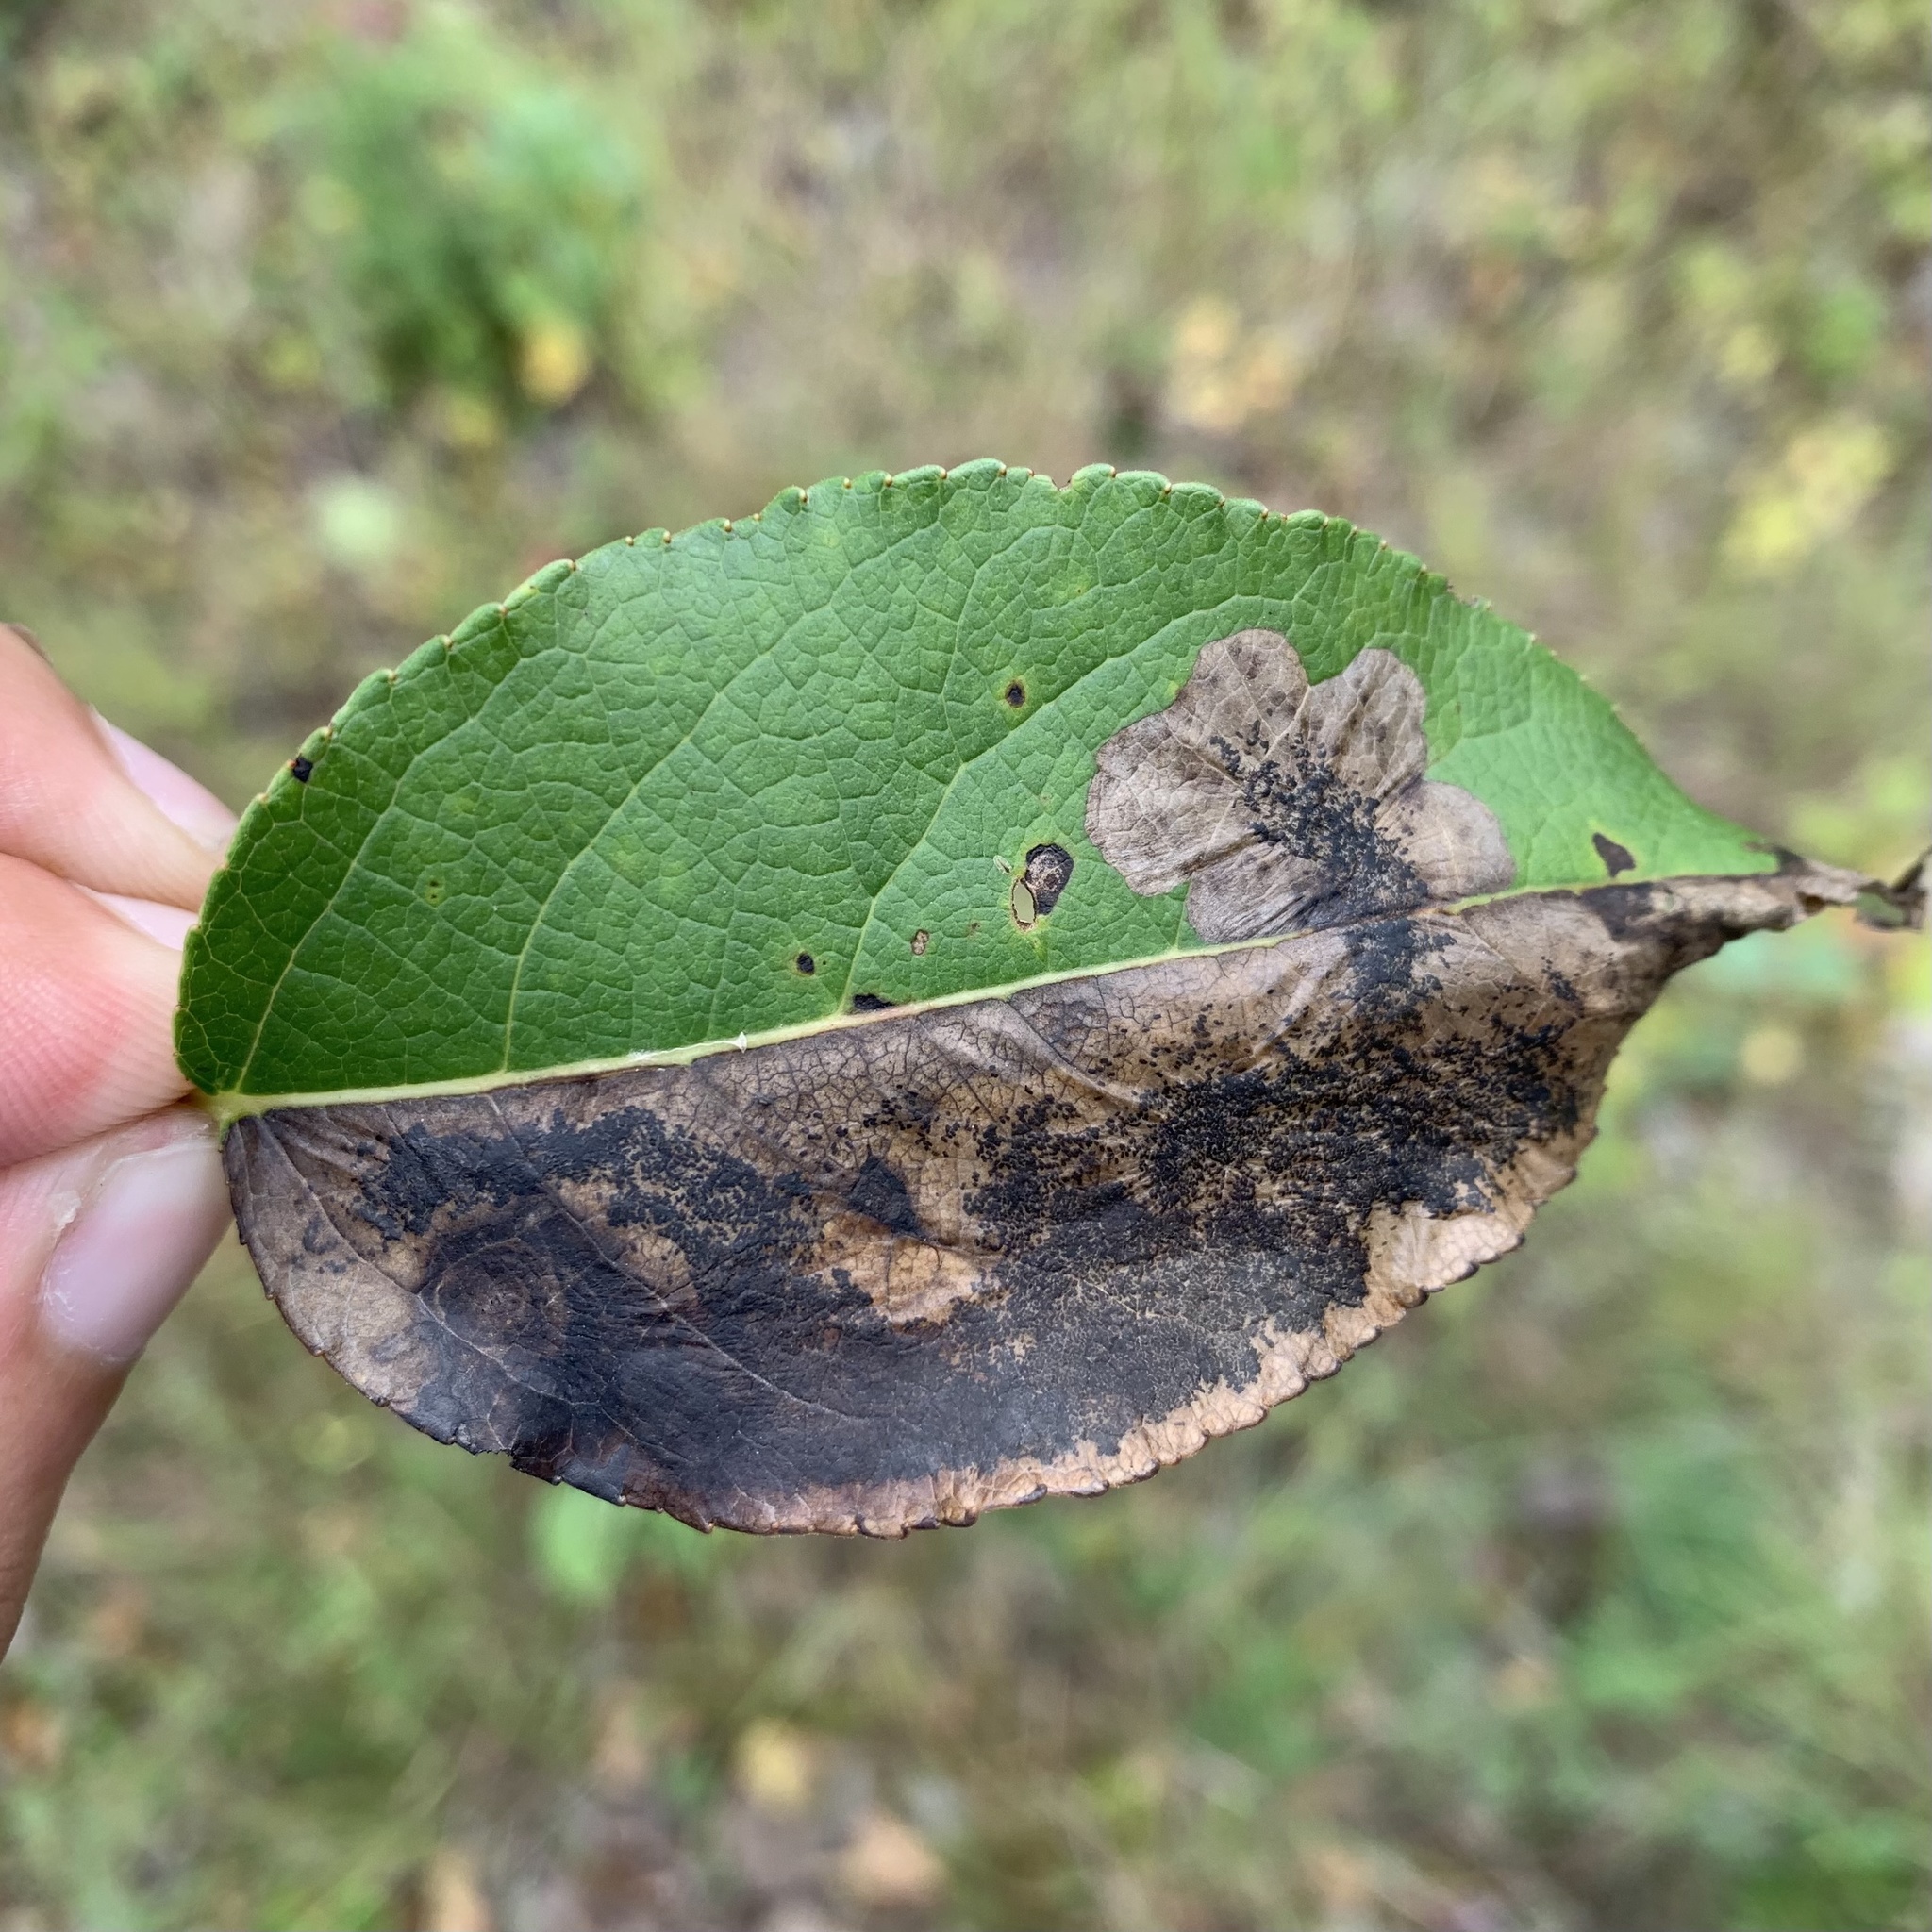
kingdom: Animalia
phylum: Arthropoda
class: Insecta
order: Lepidoptera
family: Lyonetiidae
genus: Leucoptera
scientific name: Leucoptera Paraleucoptera albella
